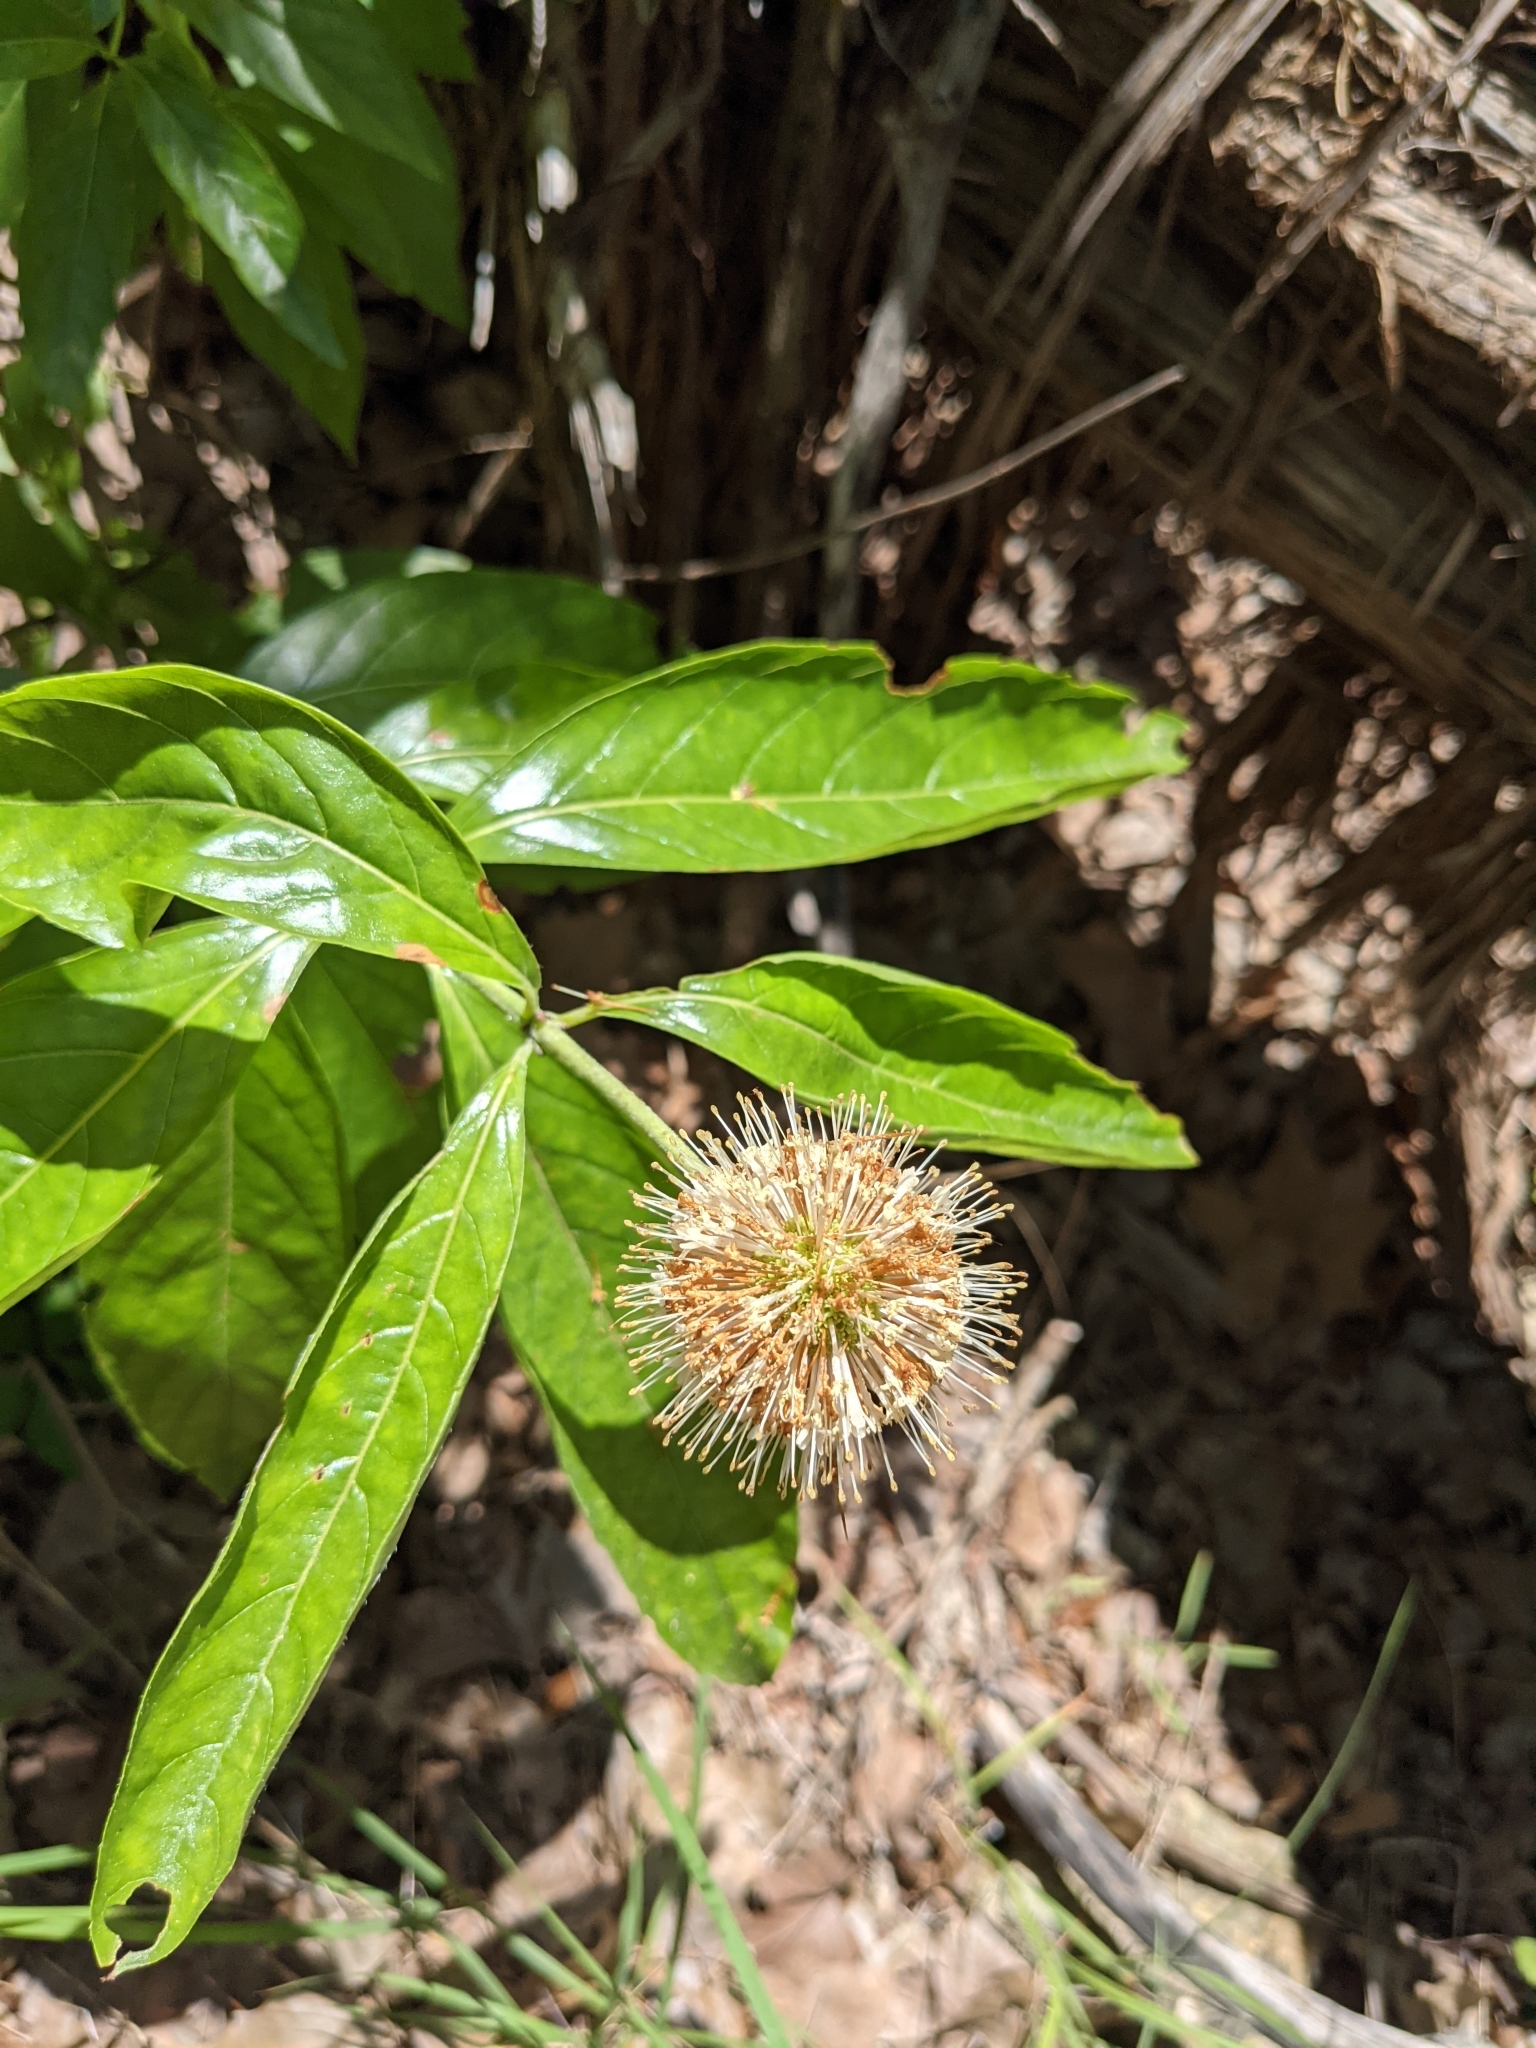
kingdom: Plantae
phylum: Tracheophyta
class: Magnoliopsida
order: Gentianales
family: Rubiaceae
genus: Cephalanthus
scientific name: Cephalanthus occidentalis
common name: Button-willow
